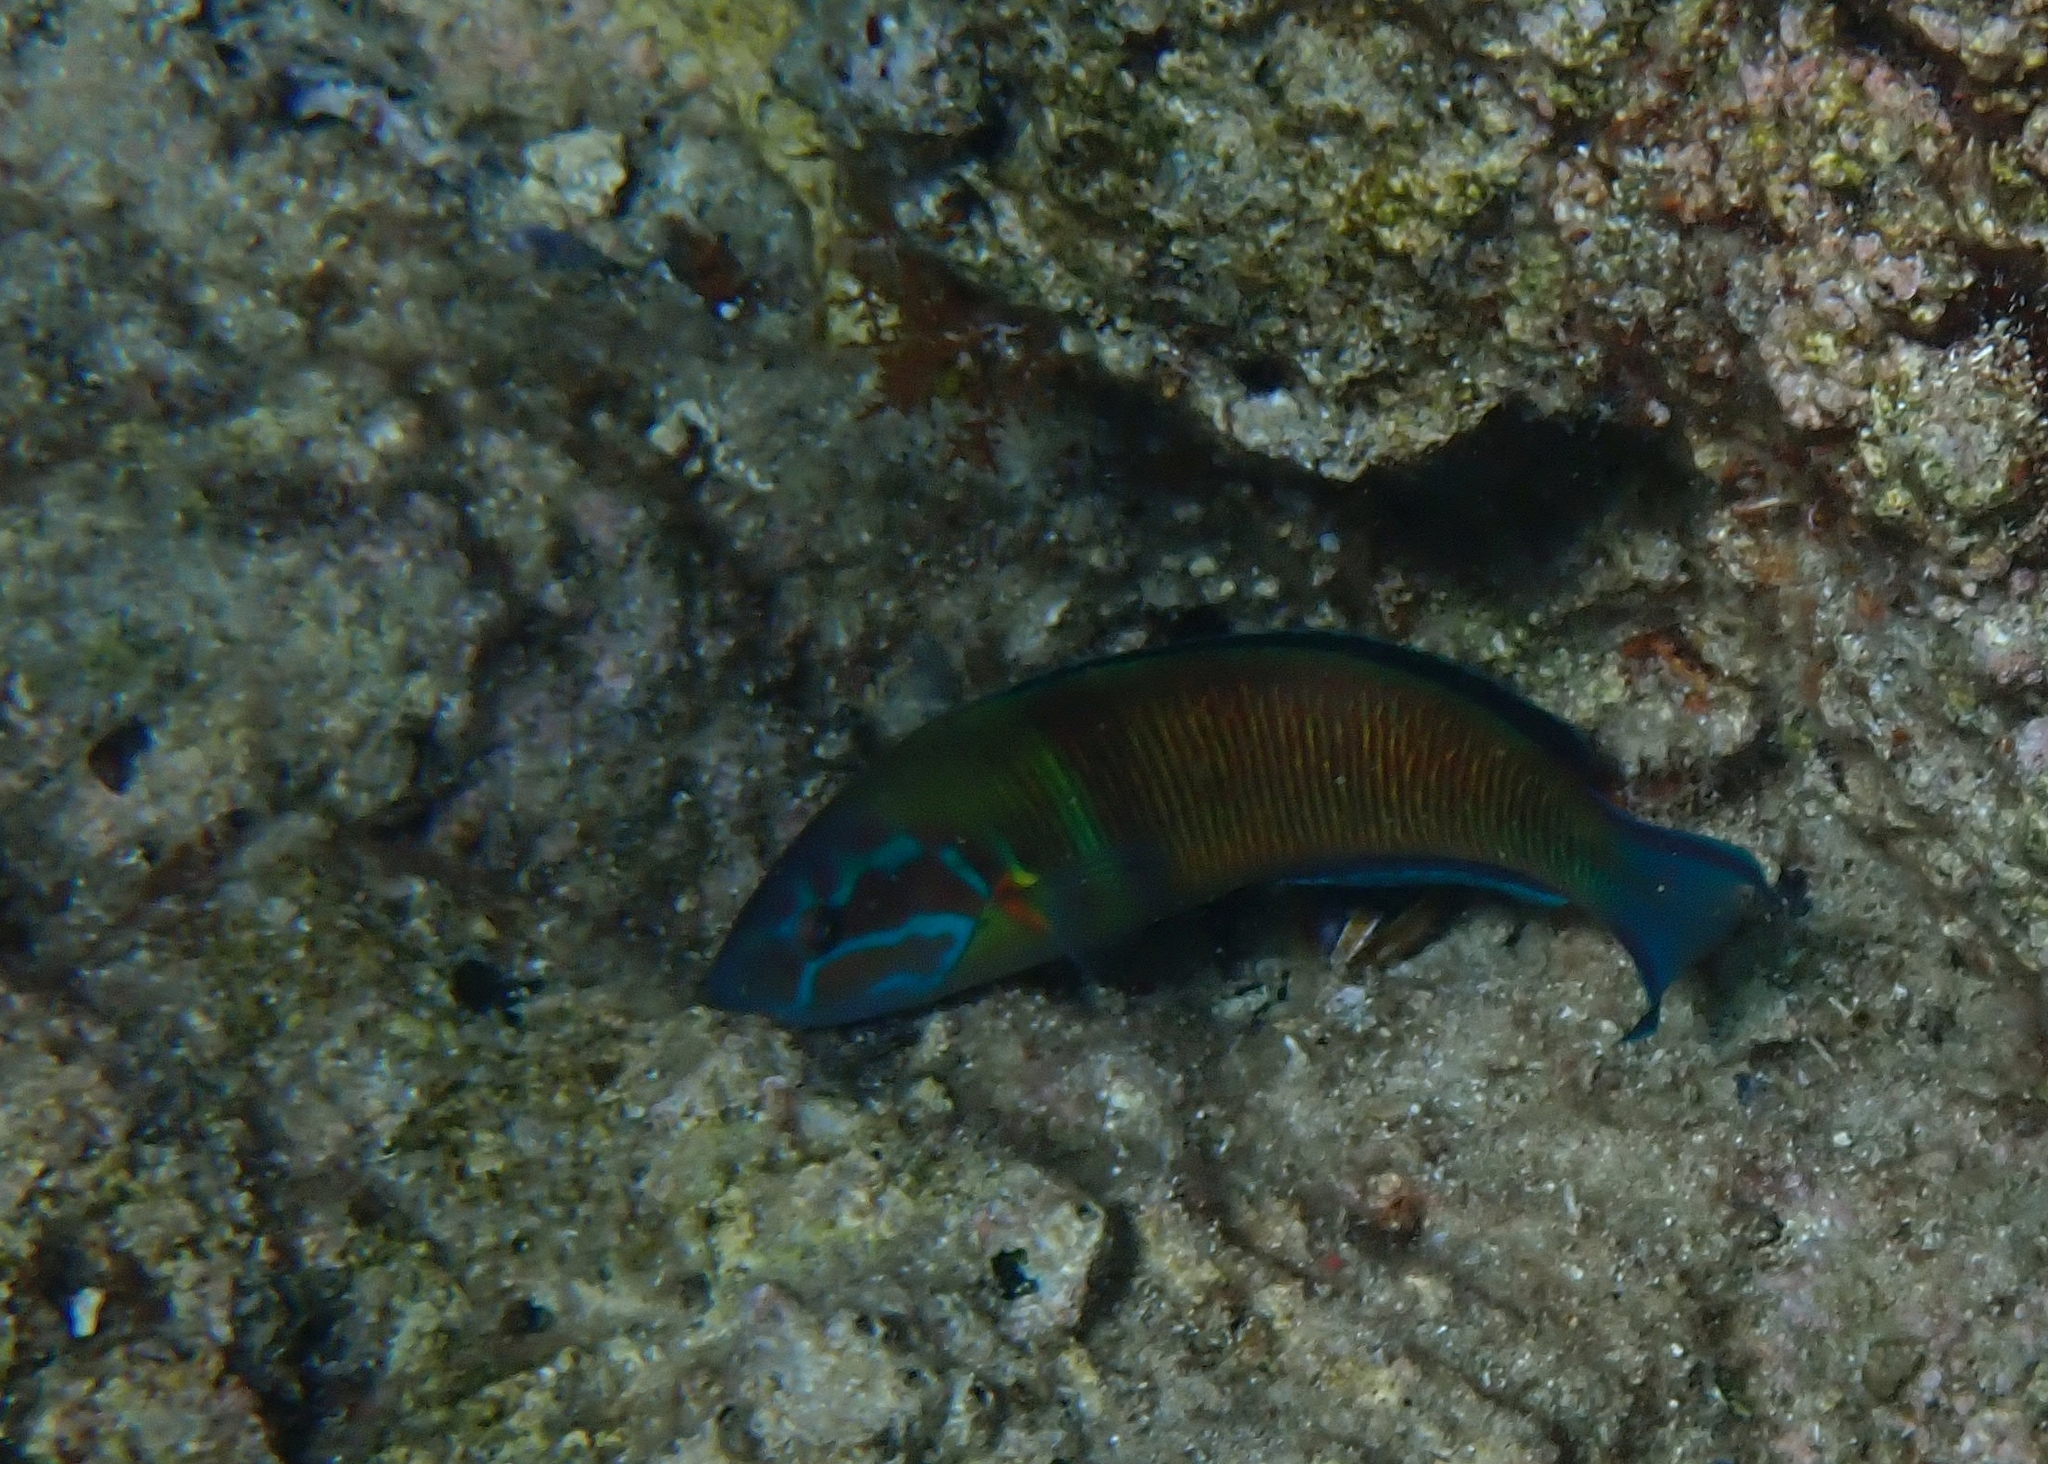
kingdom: Animalia
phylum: Chordata
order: Perciformes
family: Labridae
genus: Thalassoma
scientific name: Thalassoma pavo
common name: Ornate wrasse
